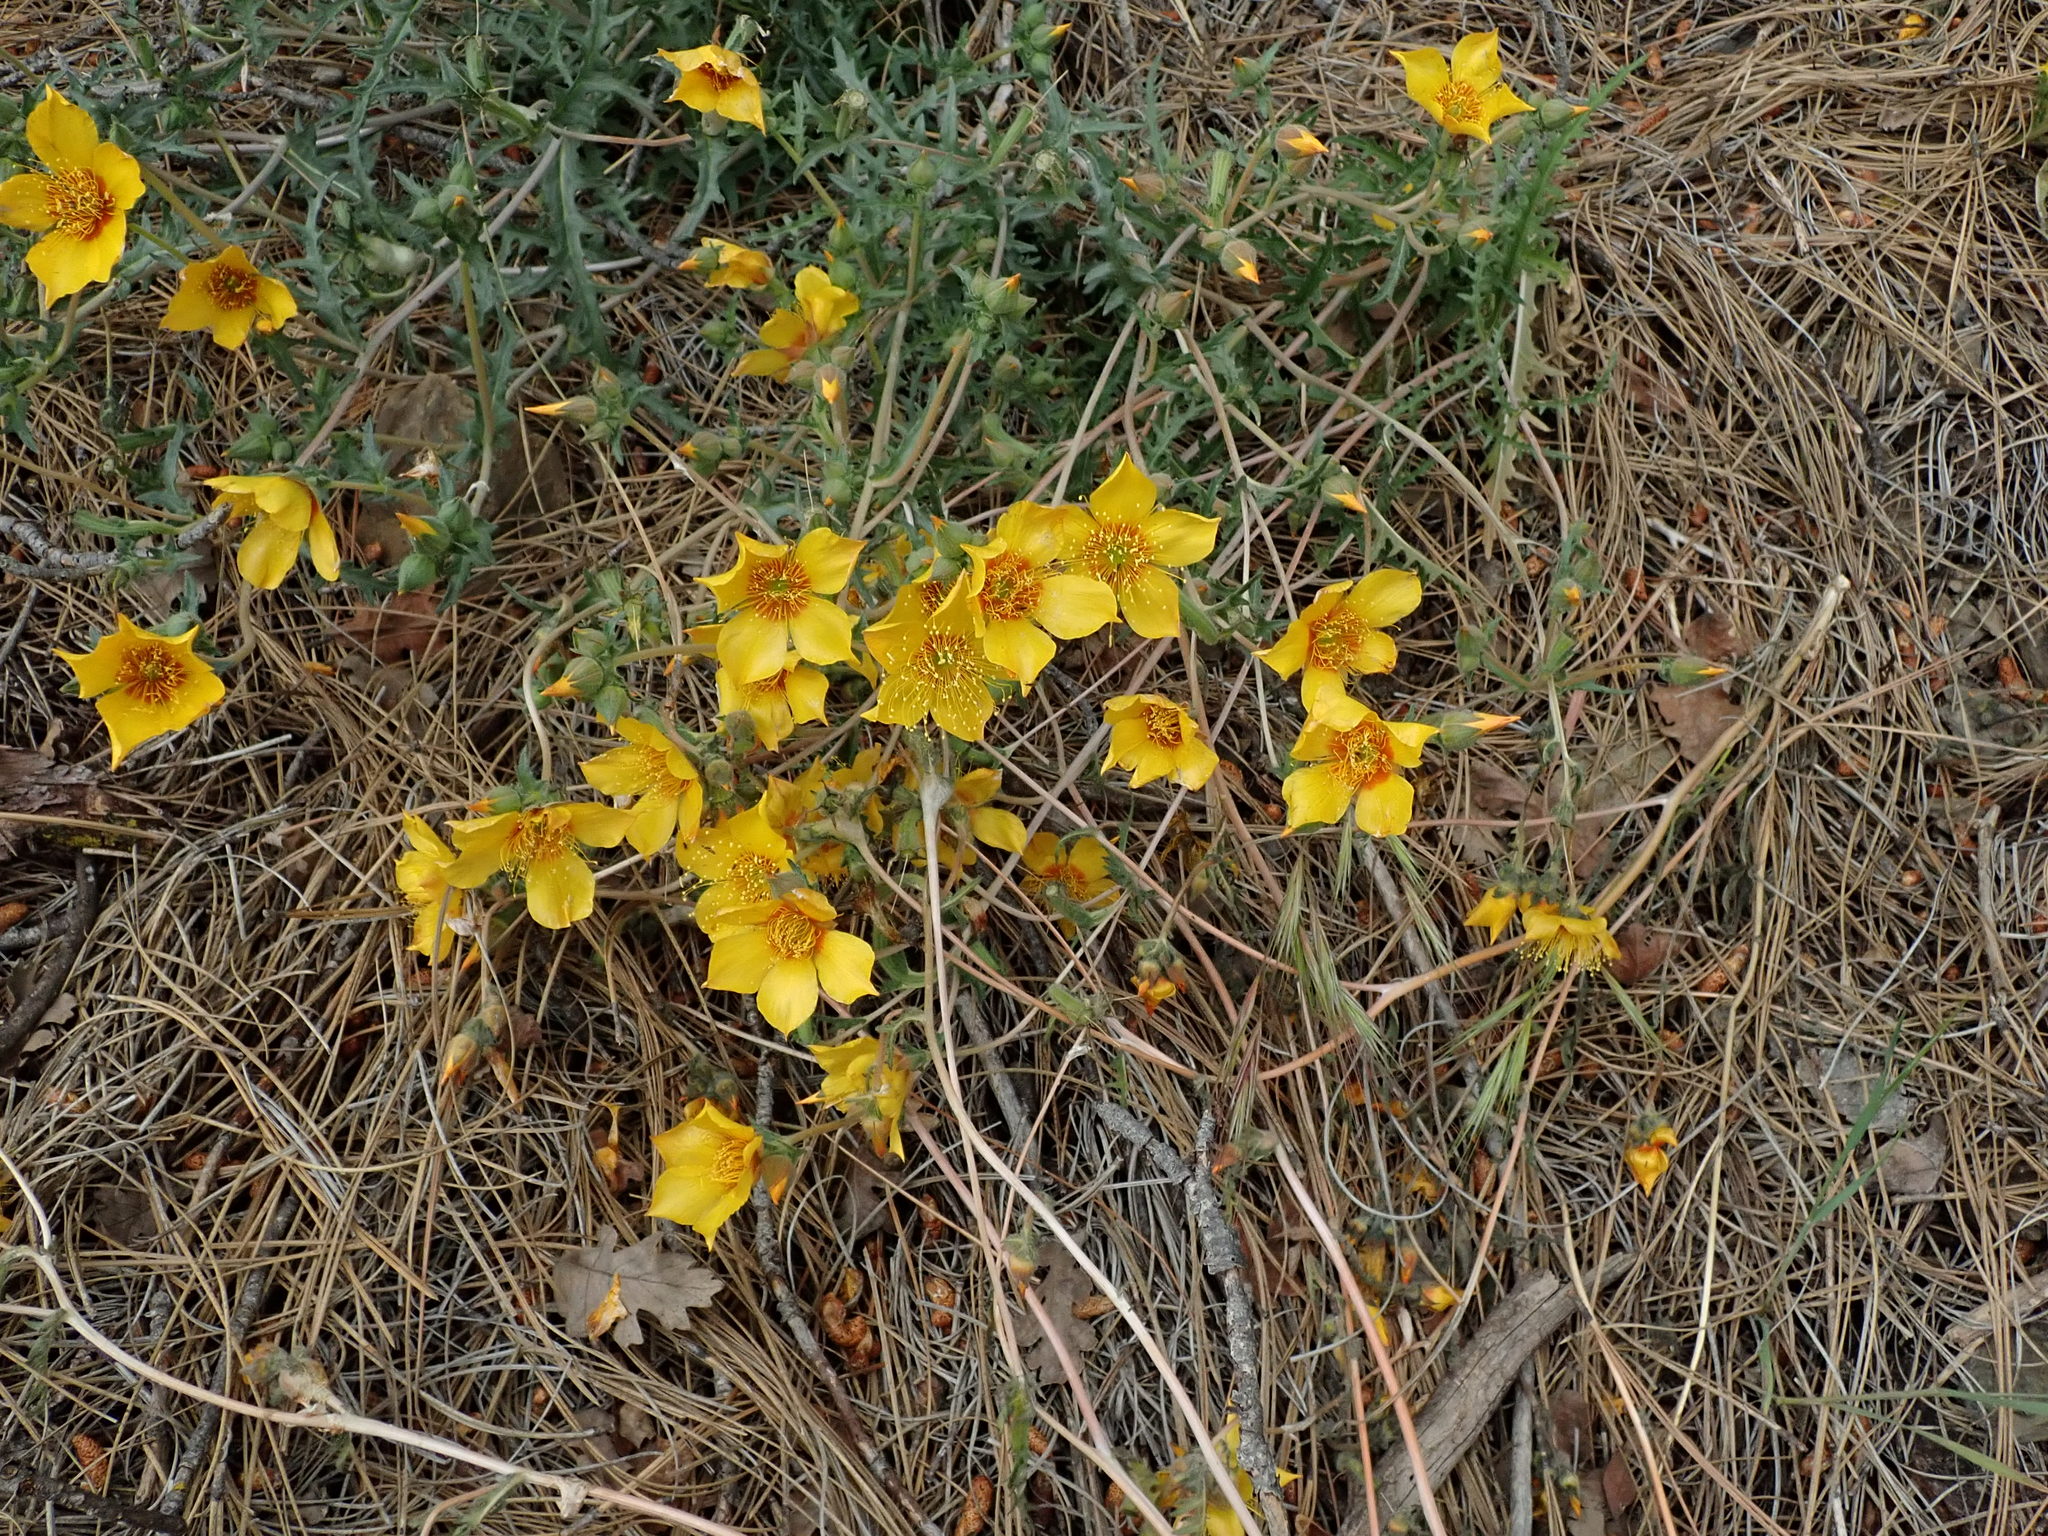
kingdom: Plantae
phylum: Tracheophyta
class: Magnoliopsida
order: Cornales
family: Loasaceae
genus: Mentzelia
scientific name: Mentzelia lindleyi
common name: Golden bartonia
